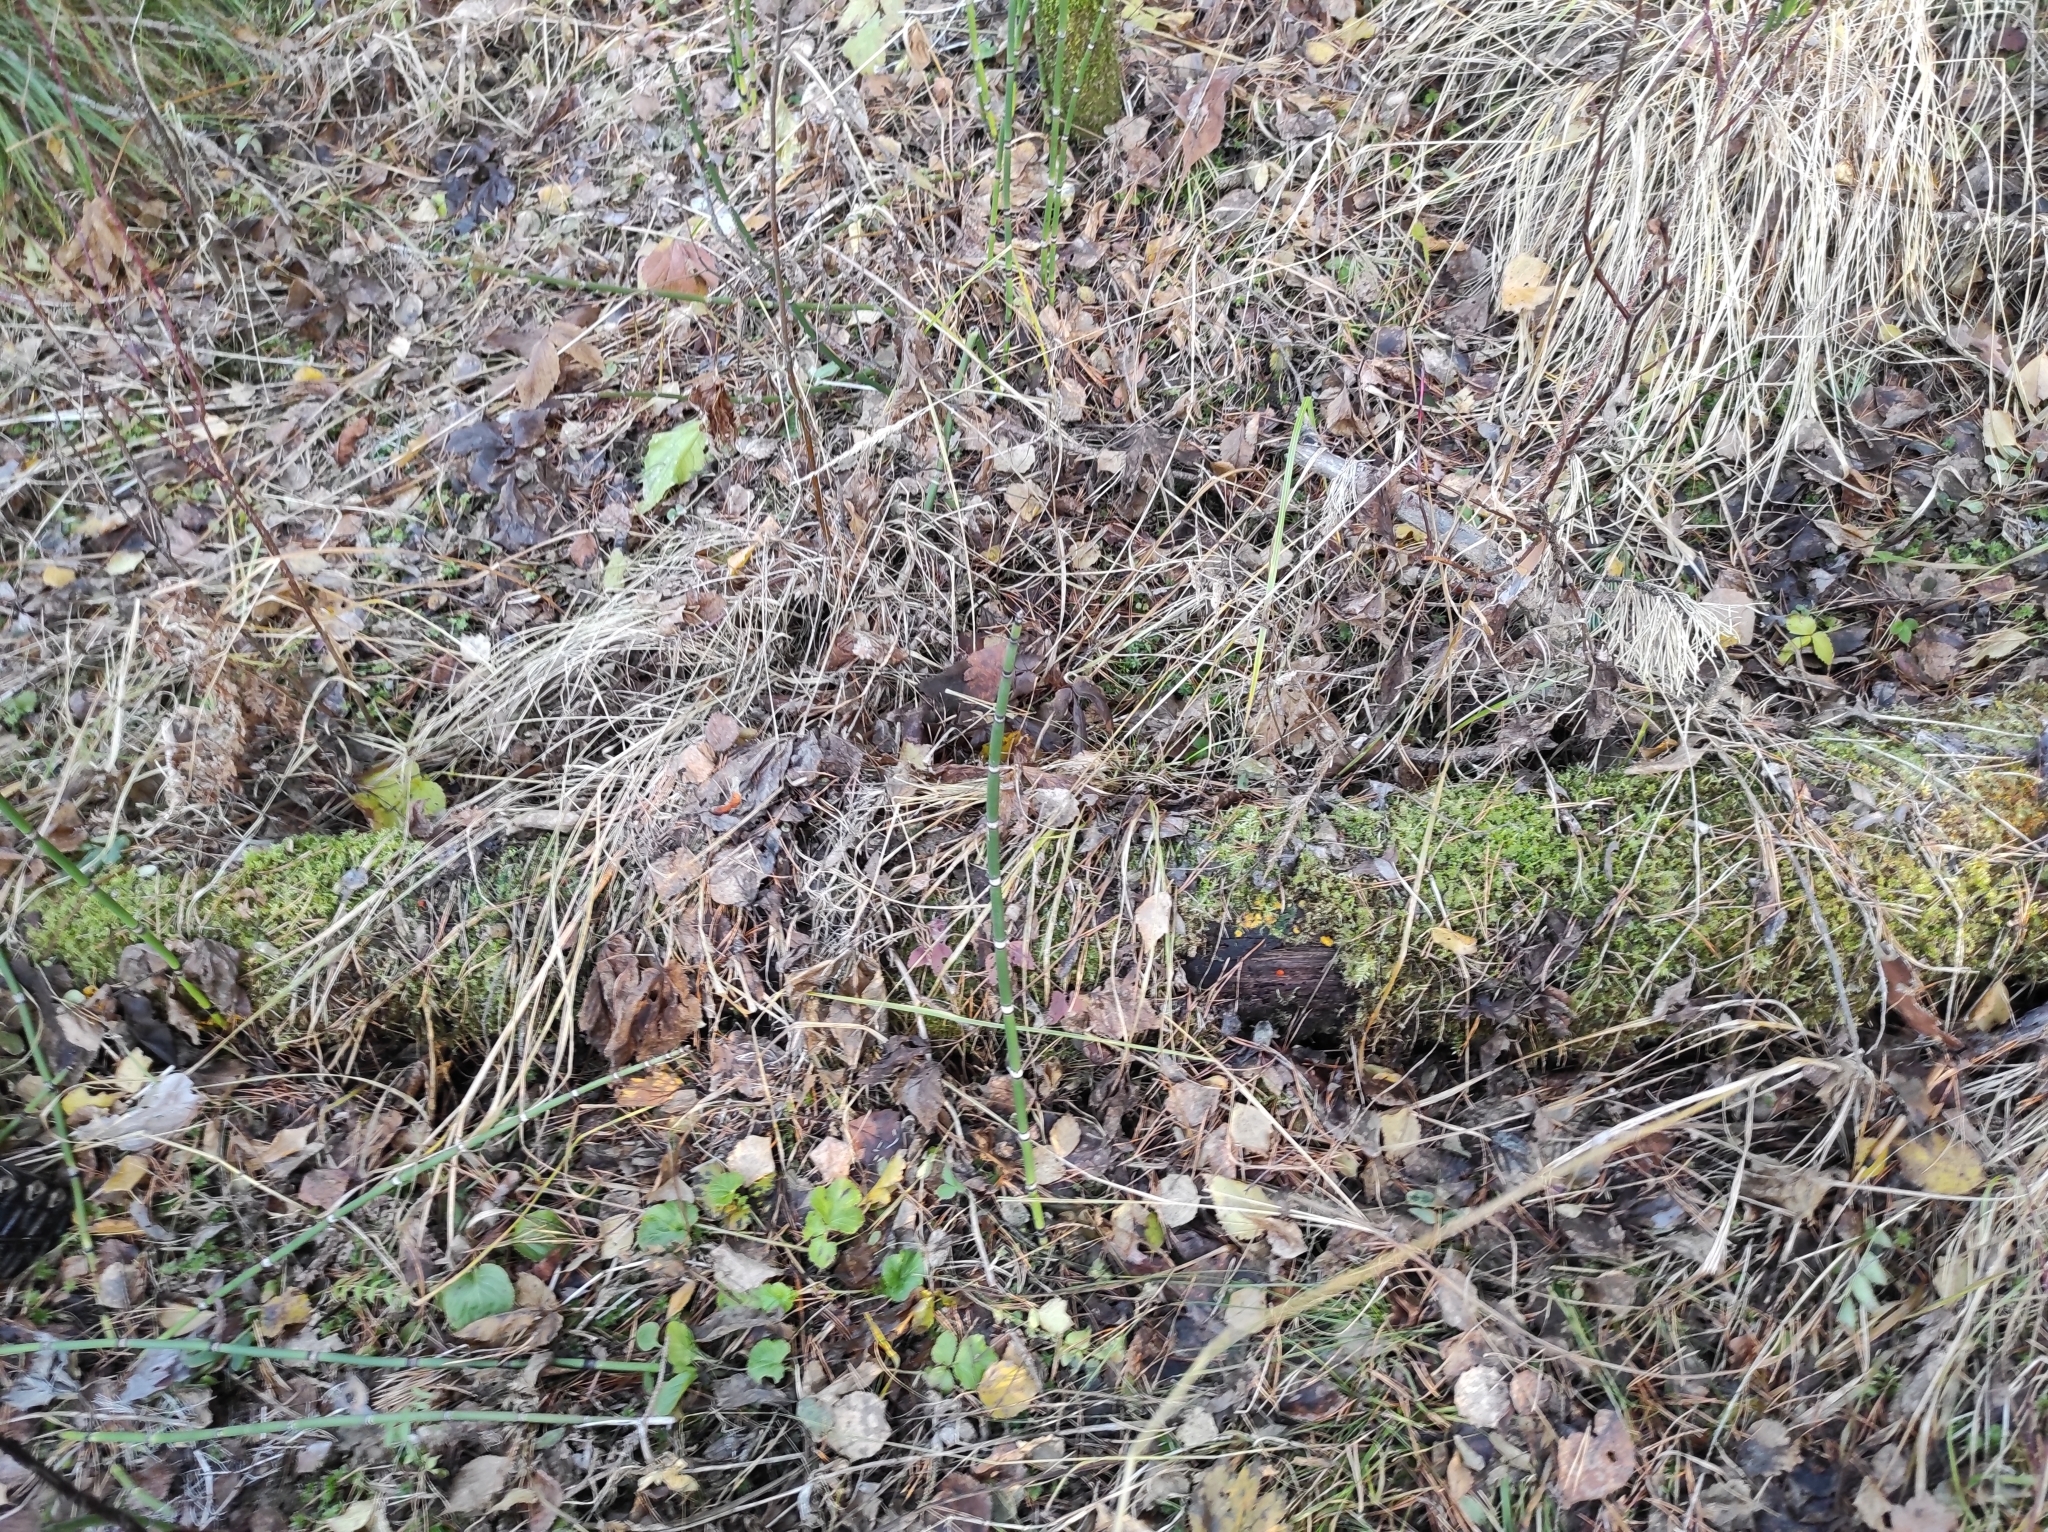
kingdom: Fungi
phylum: Ascomycota
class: Leotiomycetes
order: Helotiales
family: Pezizellaceae
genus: Calycina
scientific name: Calycina citrina
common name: Yellow fairy cups
